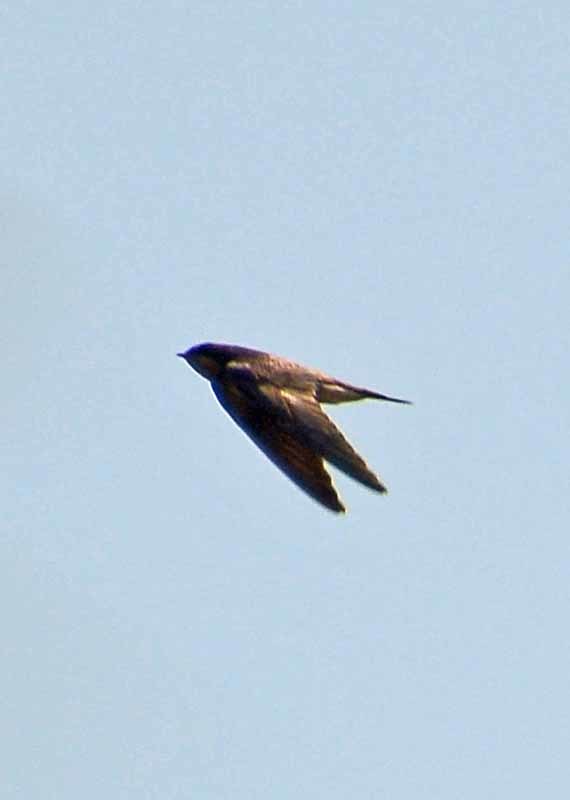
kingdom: Animalia
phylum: Chordata
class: Aves
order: Passeriformes
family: Hirundinidae
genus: Hirundo
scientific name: Hirundo rustica
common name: Barn swallow
